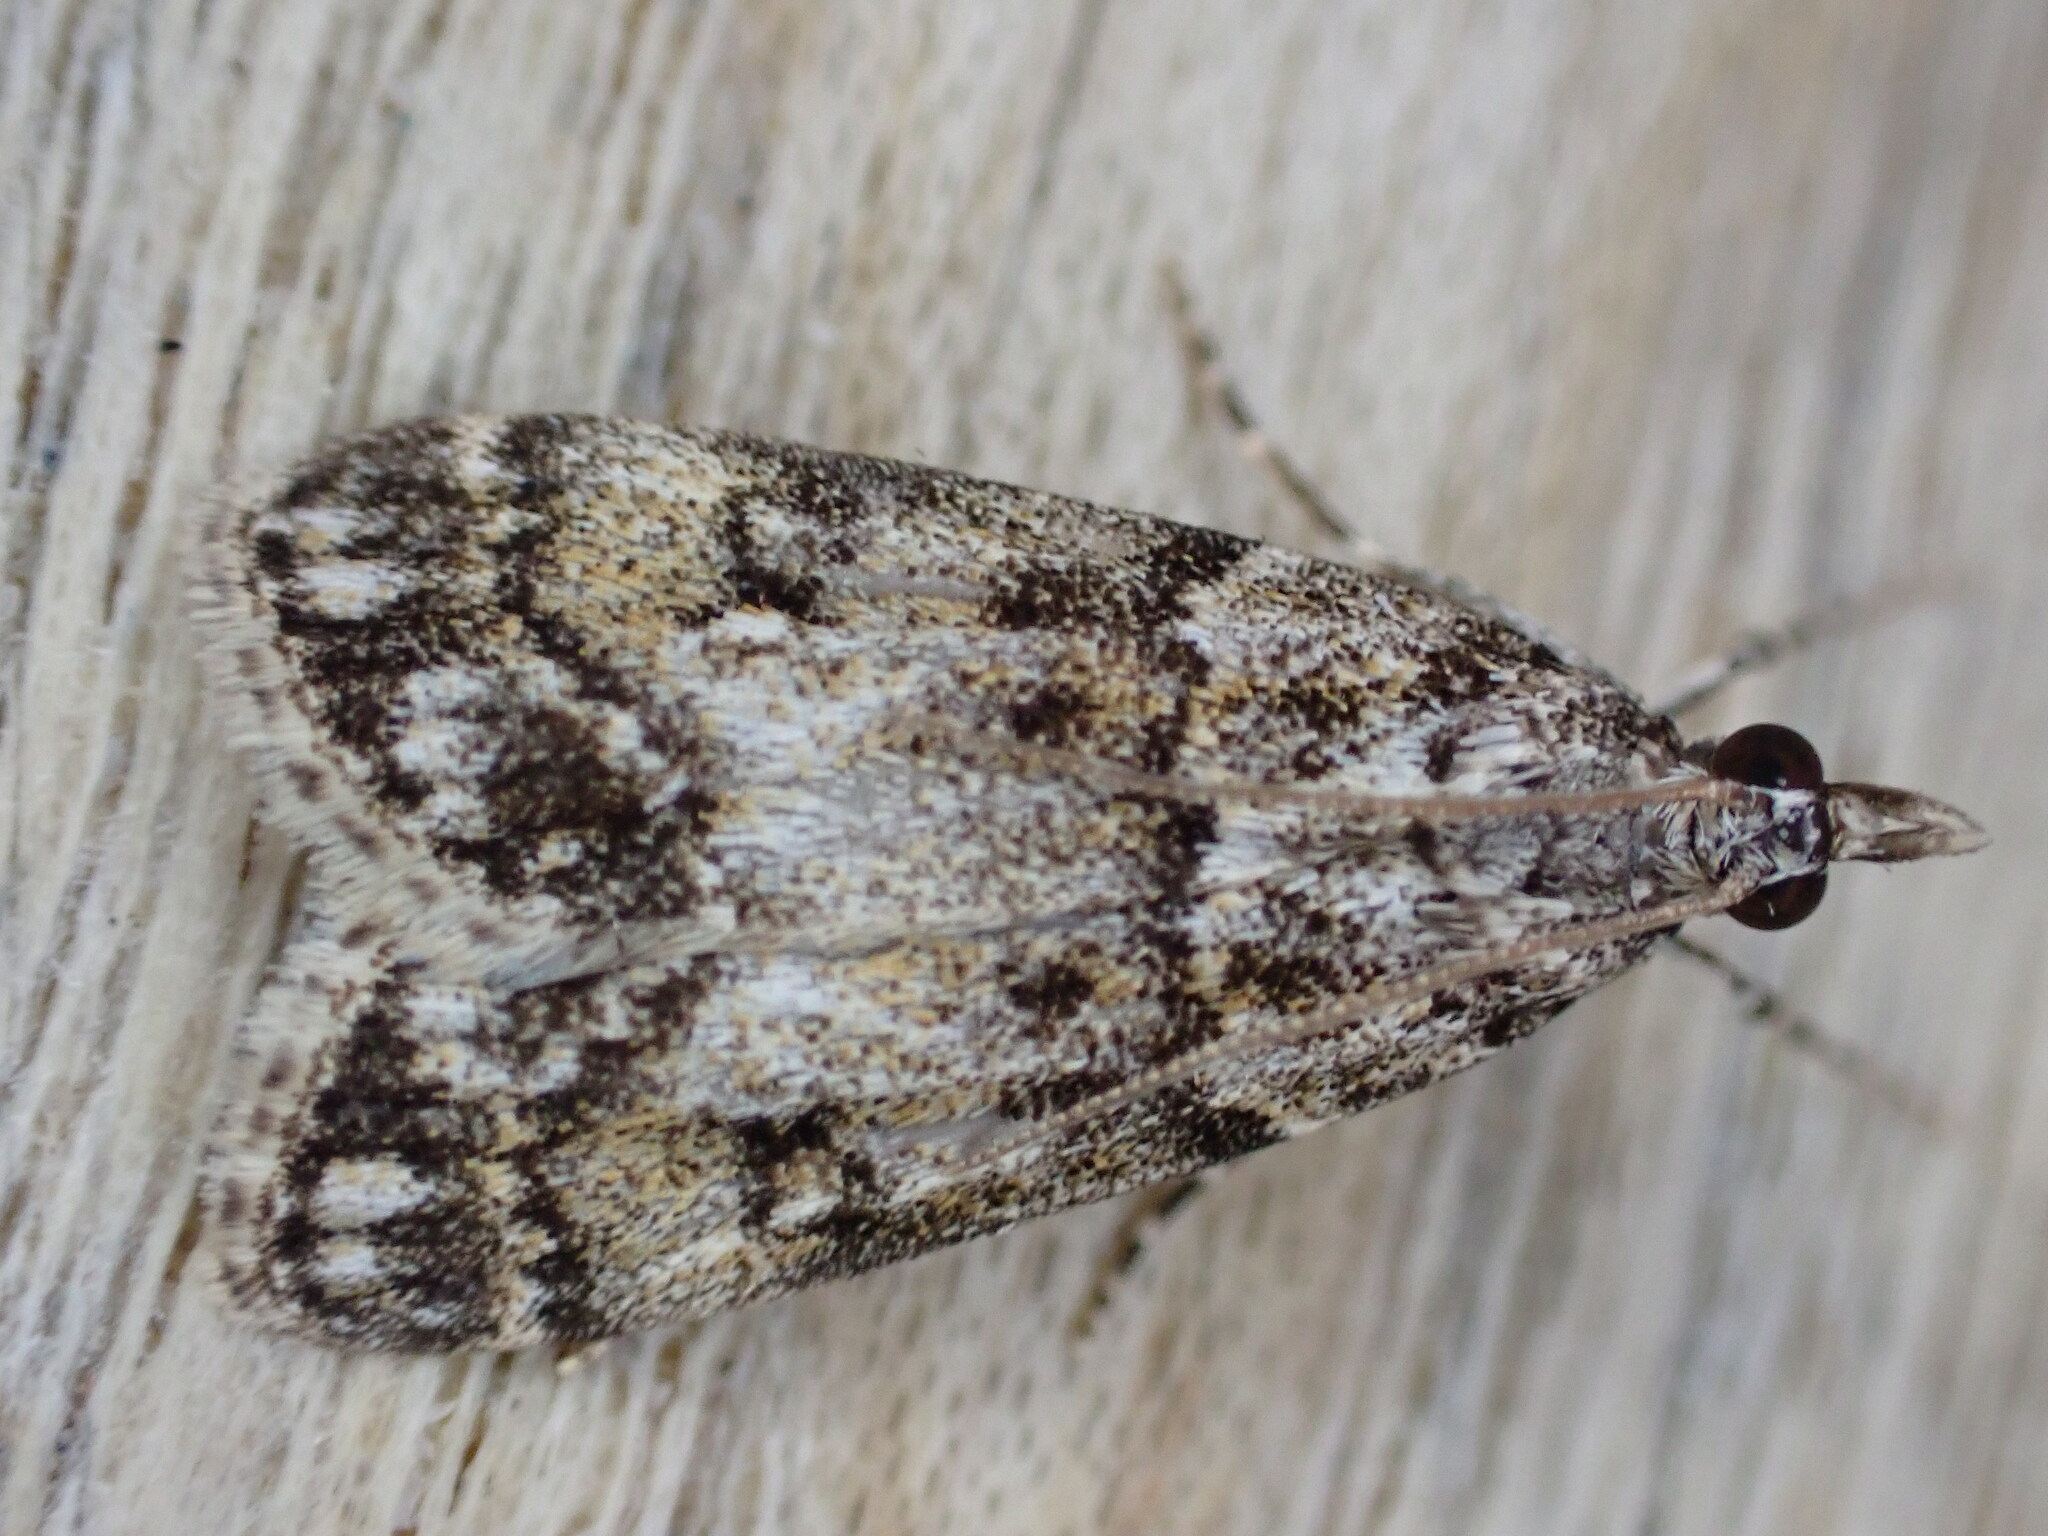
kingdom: Animalia
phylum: Arthropoda
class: Insecta
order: Lepidoptera
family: Crambidae
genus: Eudonia
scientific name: Eudonia lacustrata
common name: Little grey
